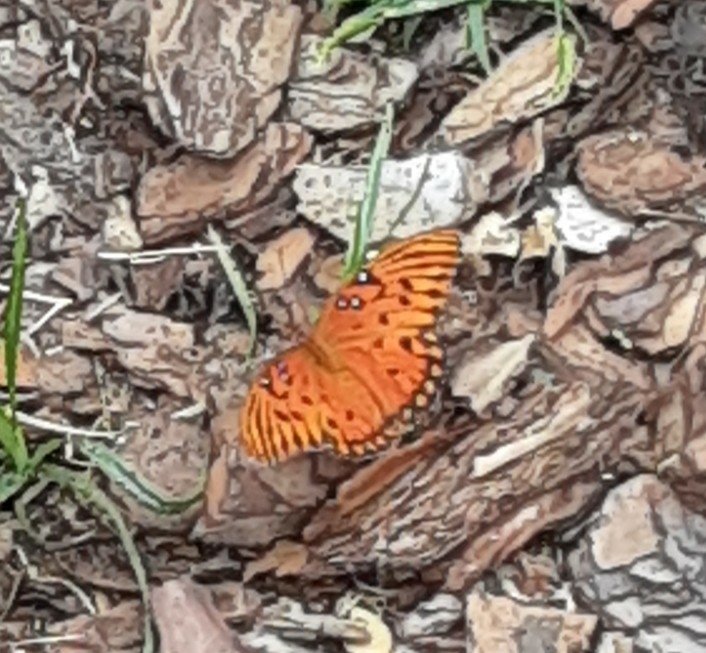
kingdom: Animalia
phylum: Arthropoda
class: Insecta
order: Lepidoptera
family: Nymphalidae
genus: Dione
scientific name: Dione vanillae
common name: Gulf fritillary
